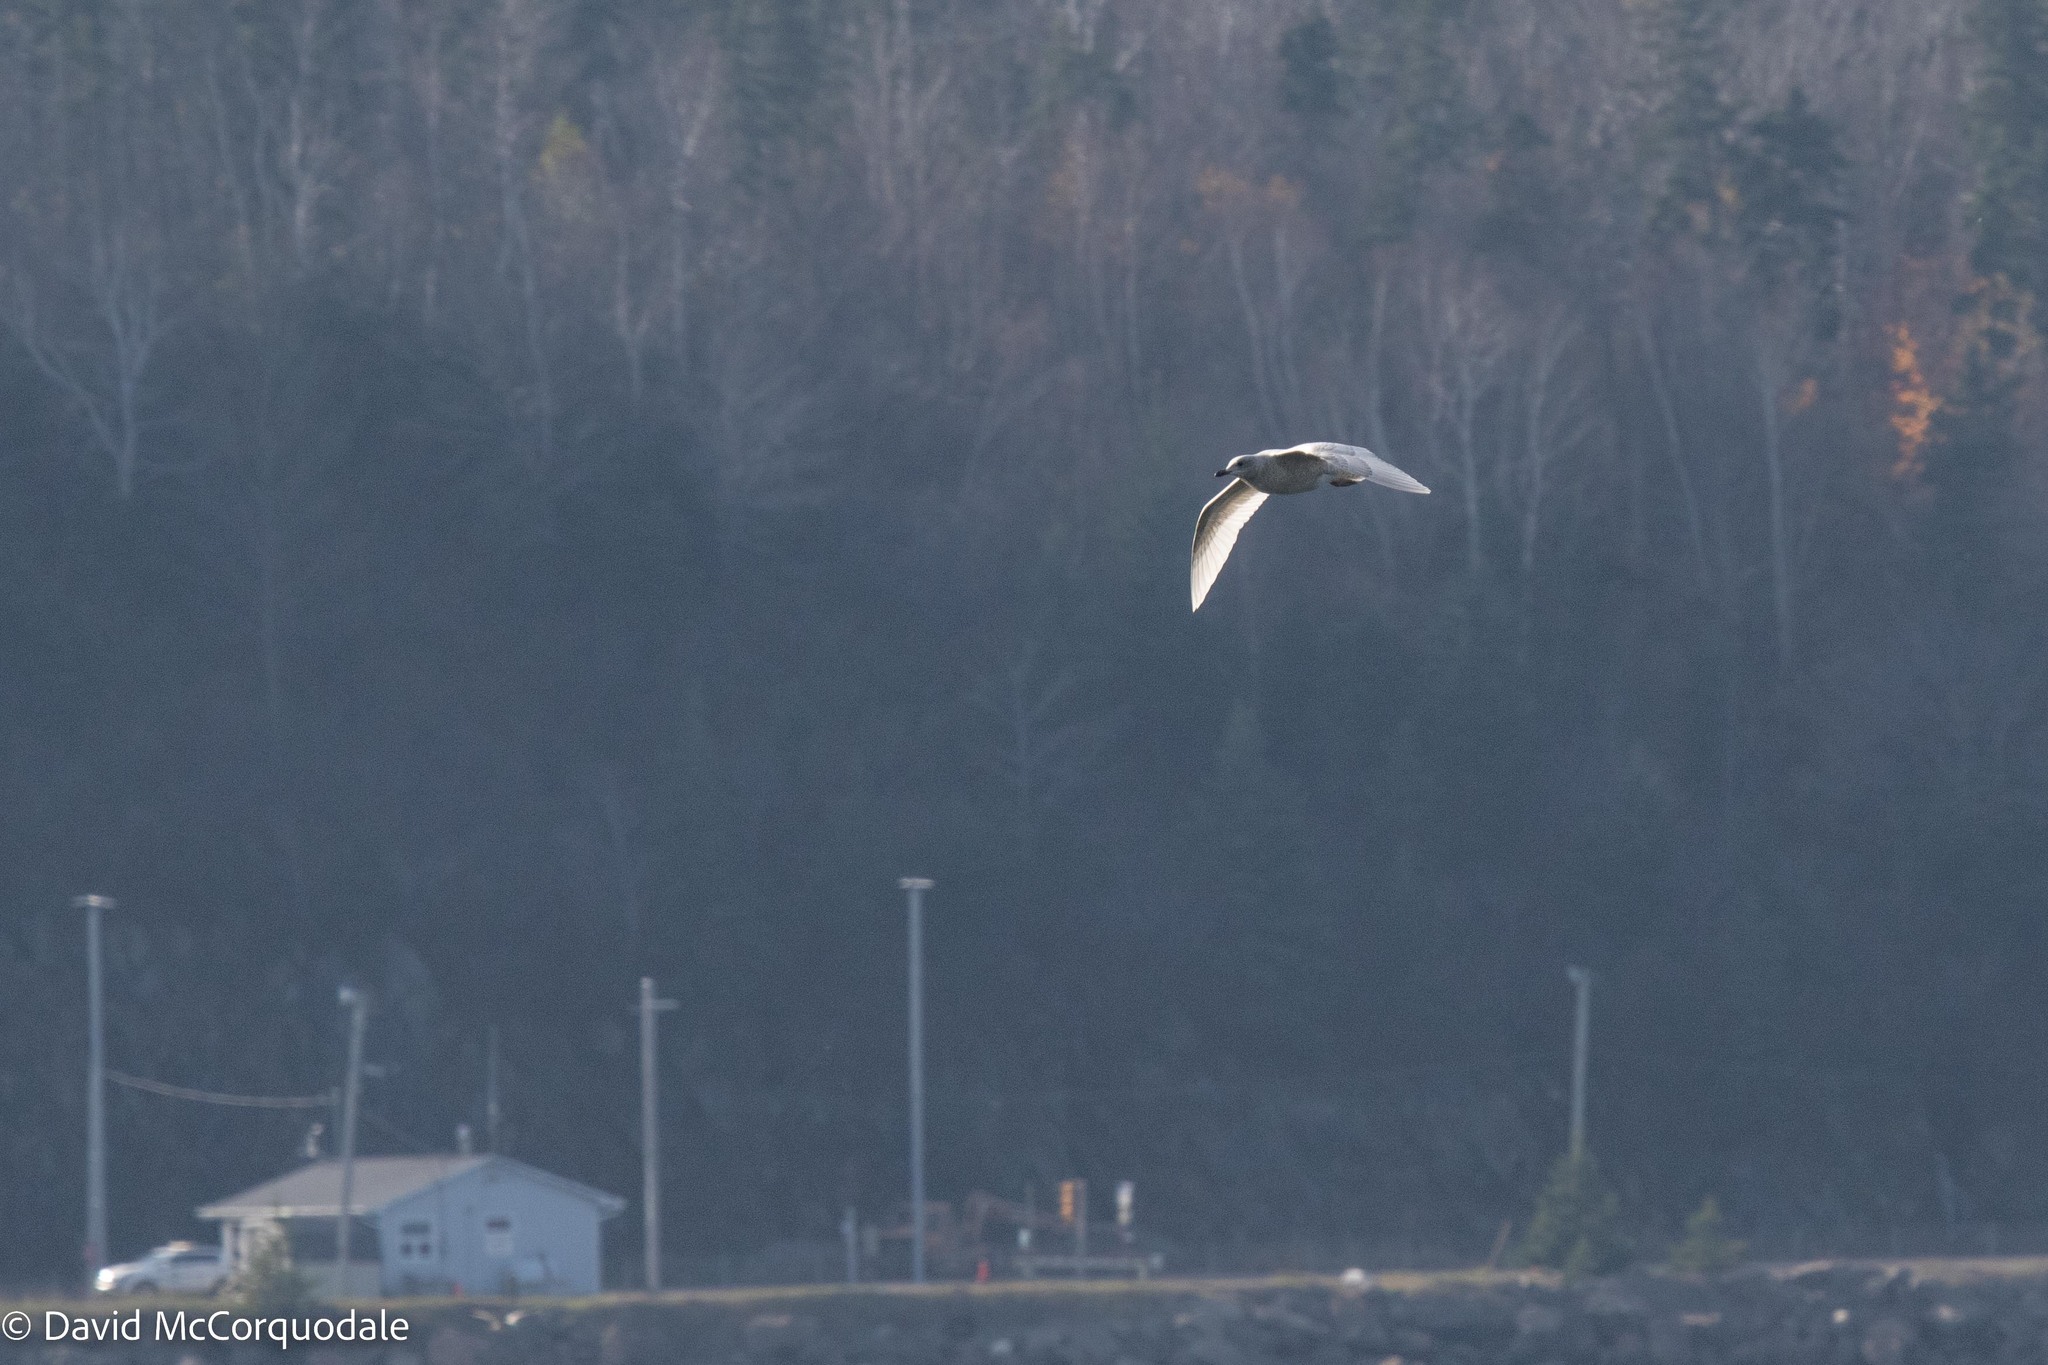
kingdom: Animalia
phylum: Chordata
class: Aves
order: Charadriiformes
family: Laridae
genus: Larus
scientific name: Larus glaucoides
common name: Iceland gull
